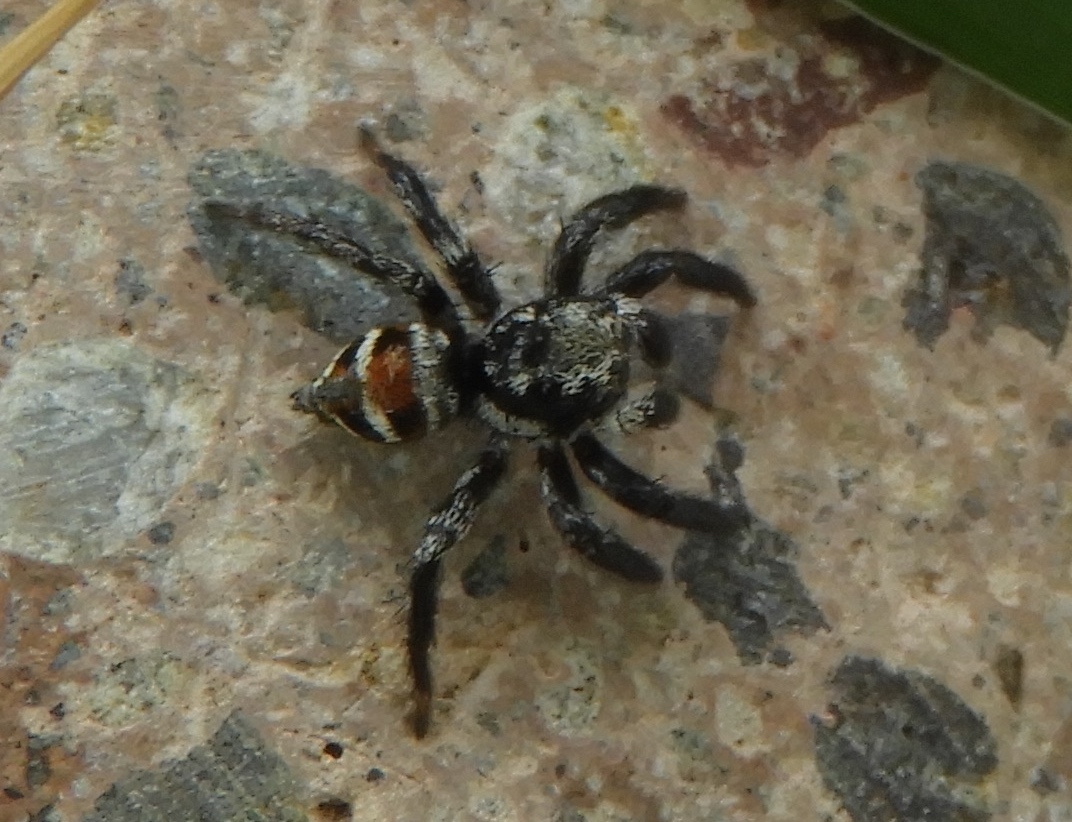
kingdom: Animalia
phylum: Arthropoda
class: Arachnida
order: Araneae
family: Salticidae
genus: Corythalia
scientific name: Corythalia opima
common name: Jumping spiders
